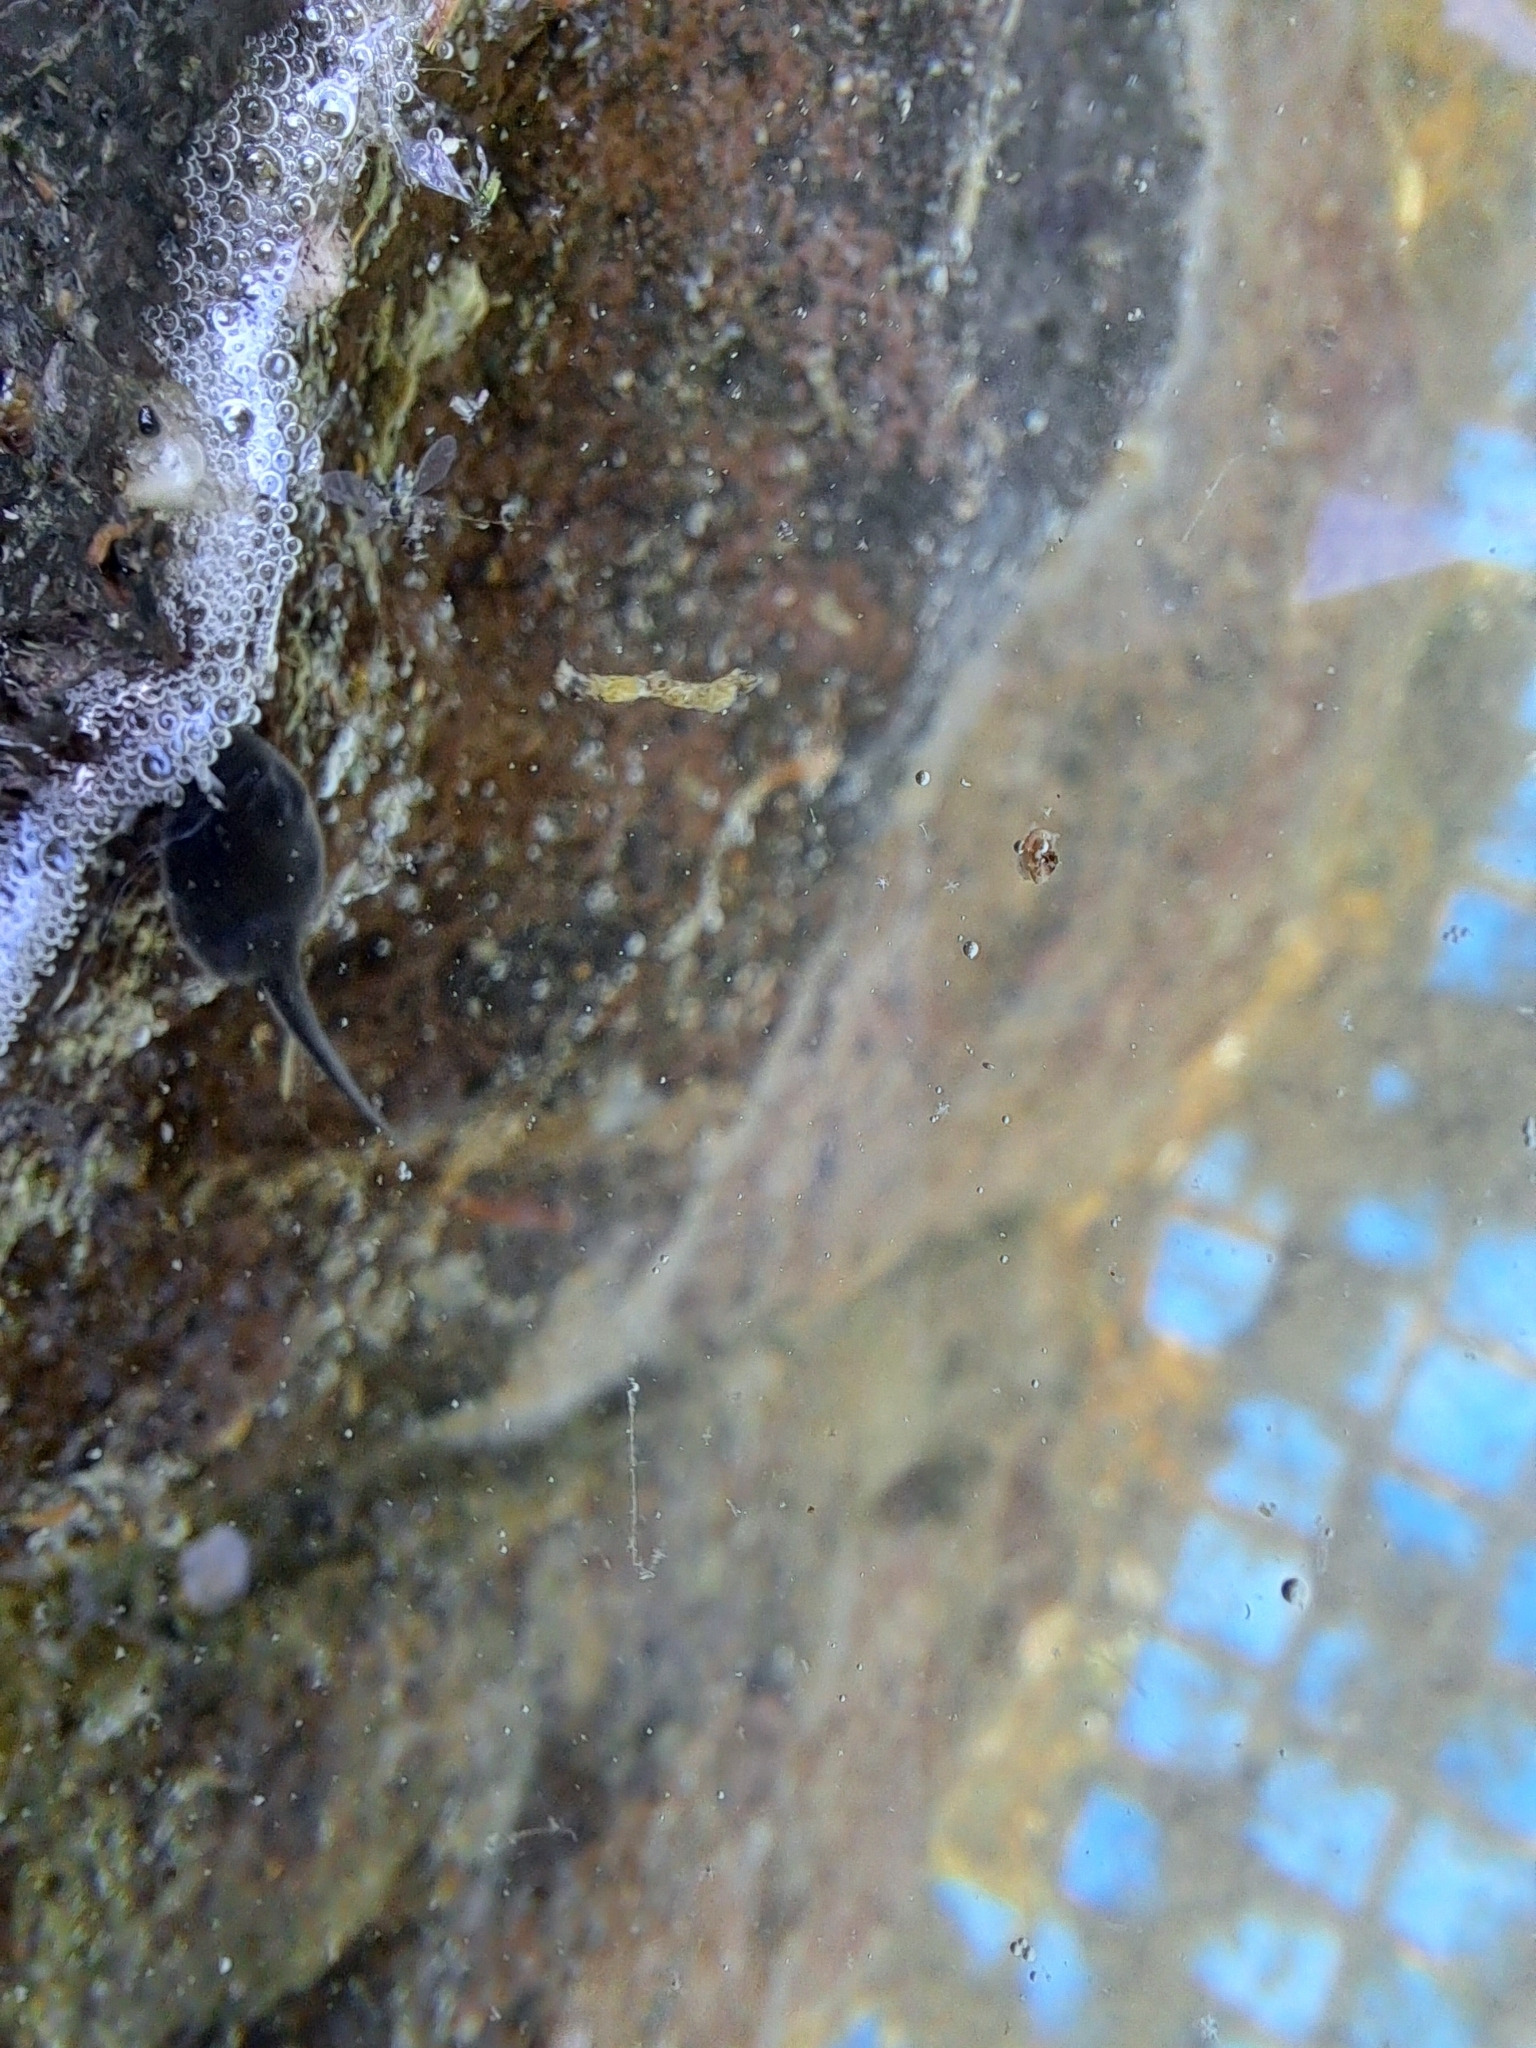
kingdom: Animalia
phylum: Chordata
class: Amphibia
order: Anura
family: Bufonidae
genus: Bufotes
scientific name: Bufotes viridis
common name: European green toad
